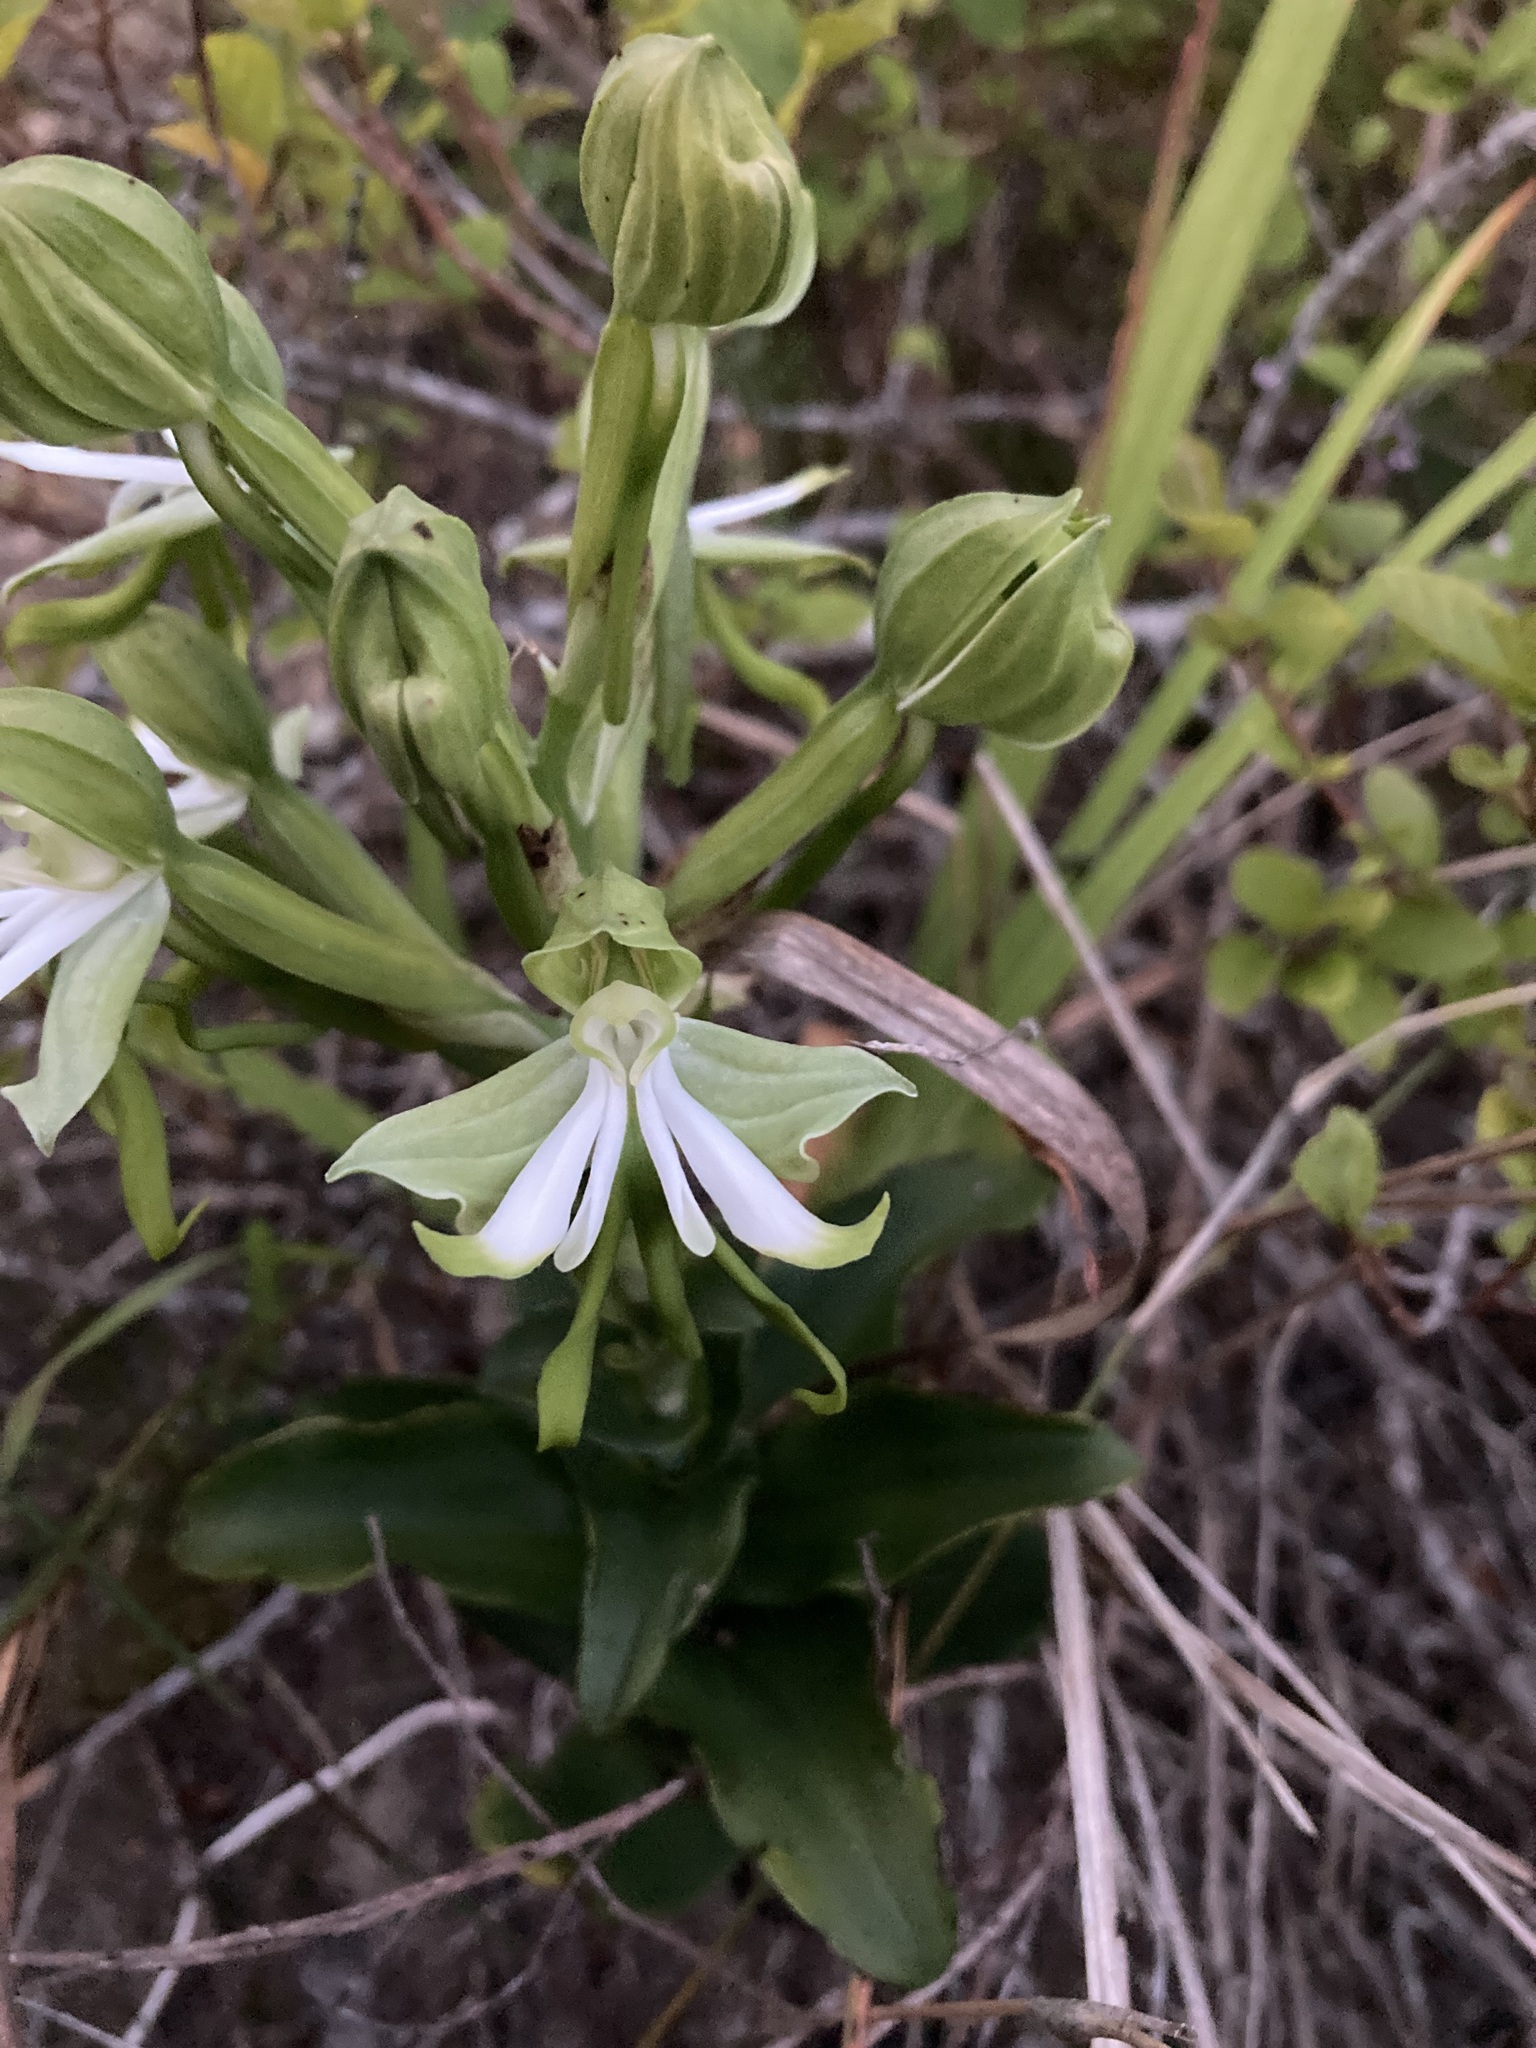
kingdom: Plantae
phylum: Tracheophyta
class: Liliopsida
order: Asparagales
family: Orchidaceae
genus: Bonatea
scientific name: Bonatea speciosa
